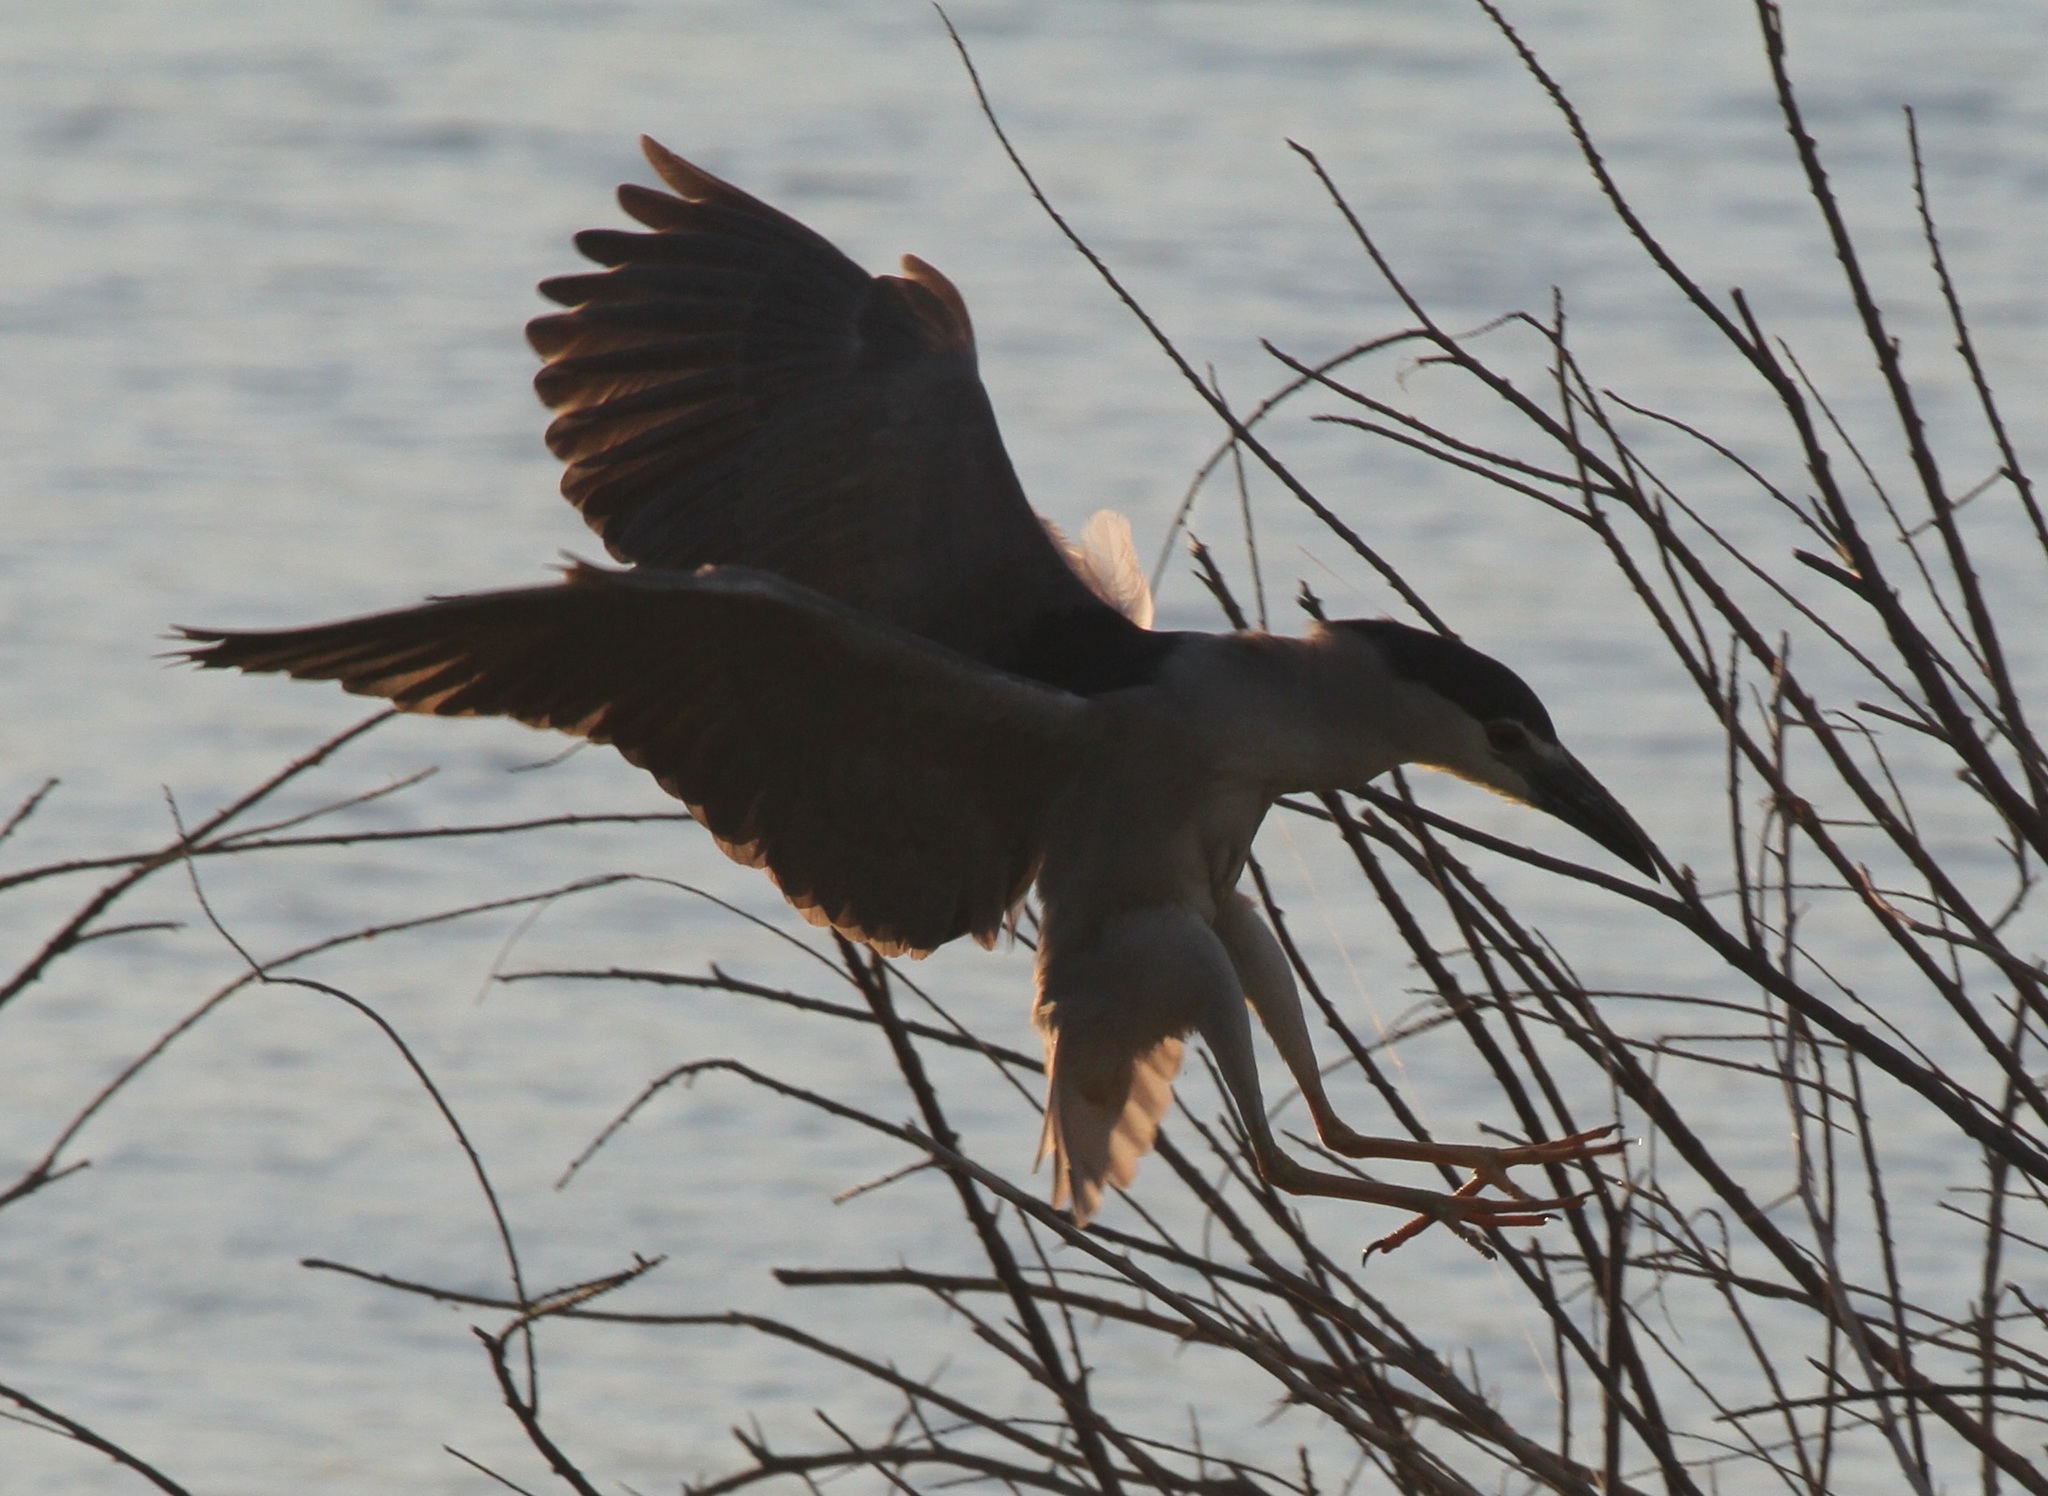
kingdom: Animalia
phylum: Chordata
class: Aves
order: Pelecaniformes
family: Ardeidae
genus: Nycticorax
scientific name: Nycticorax nycticorax
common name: Black-crowned night heron
